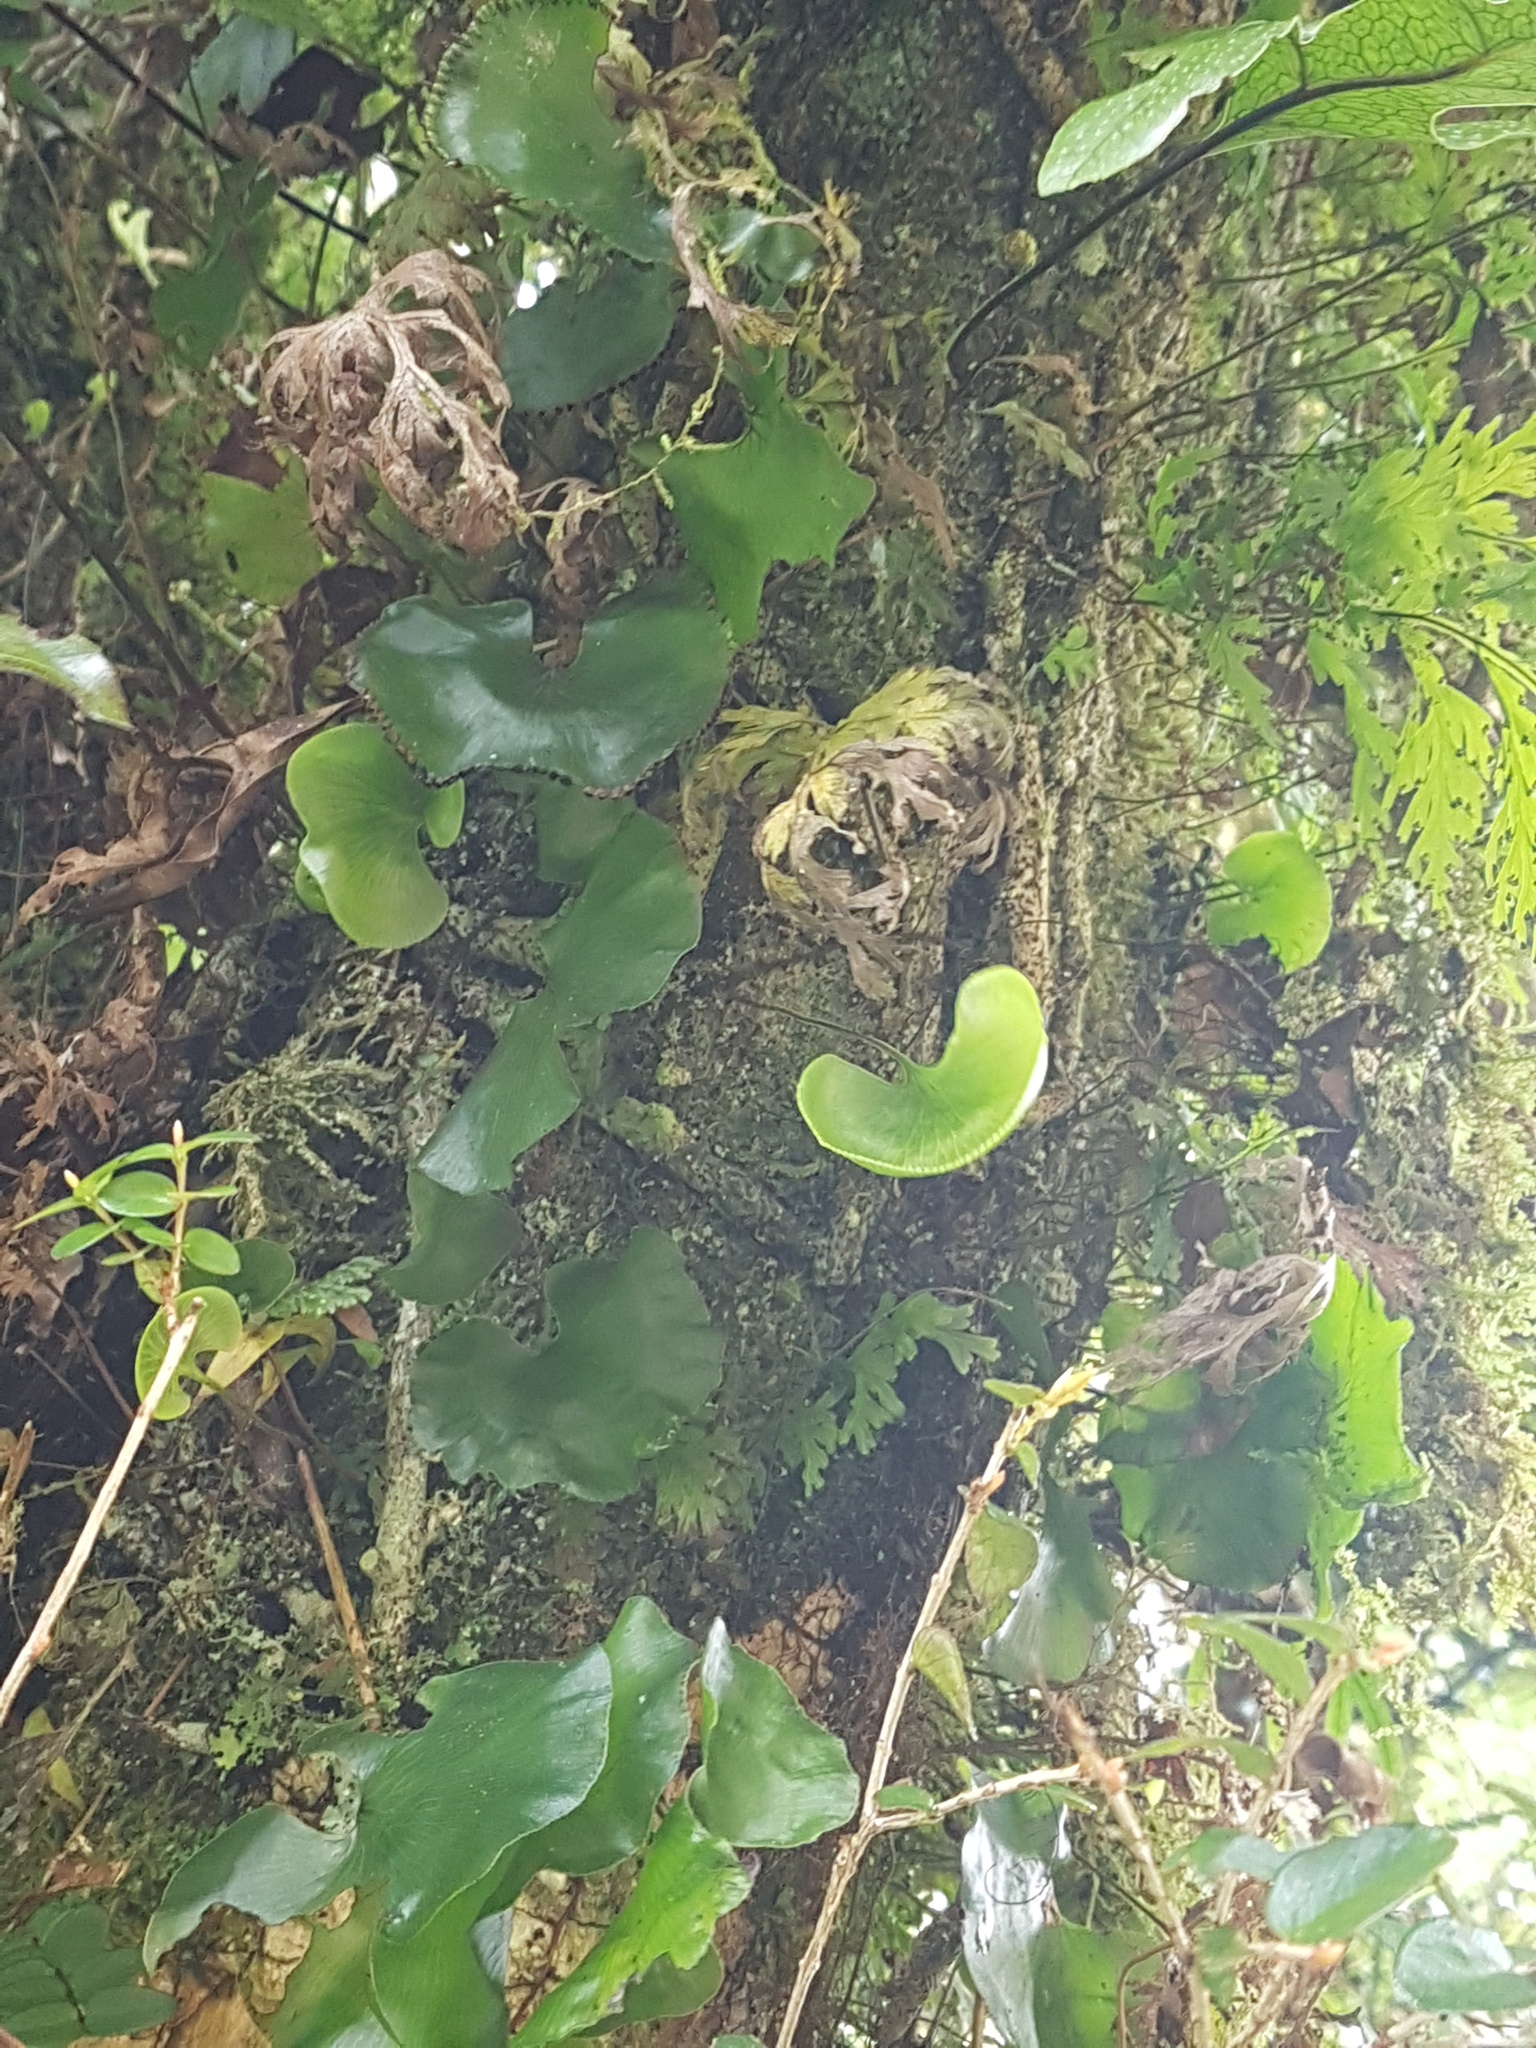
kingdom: Plantae
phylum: Tracheophyta
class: Polypodiopsida
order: Hymenophyllales
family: Hymenophyllaceae
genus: Hymenophyllum
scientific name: Hymenophyllum nephrophyllum
